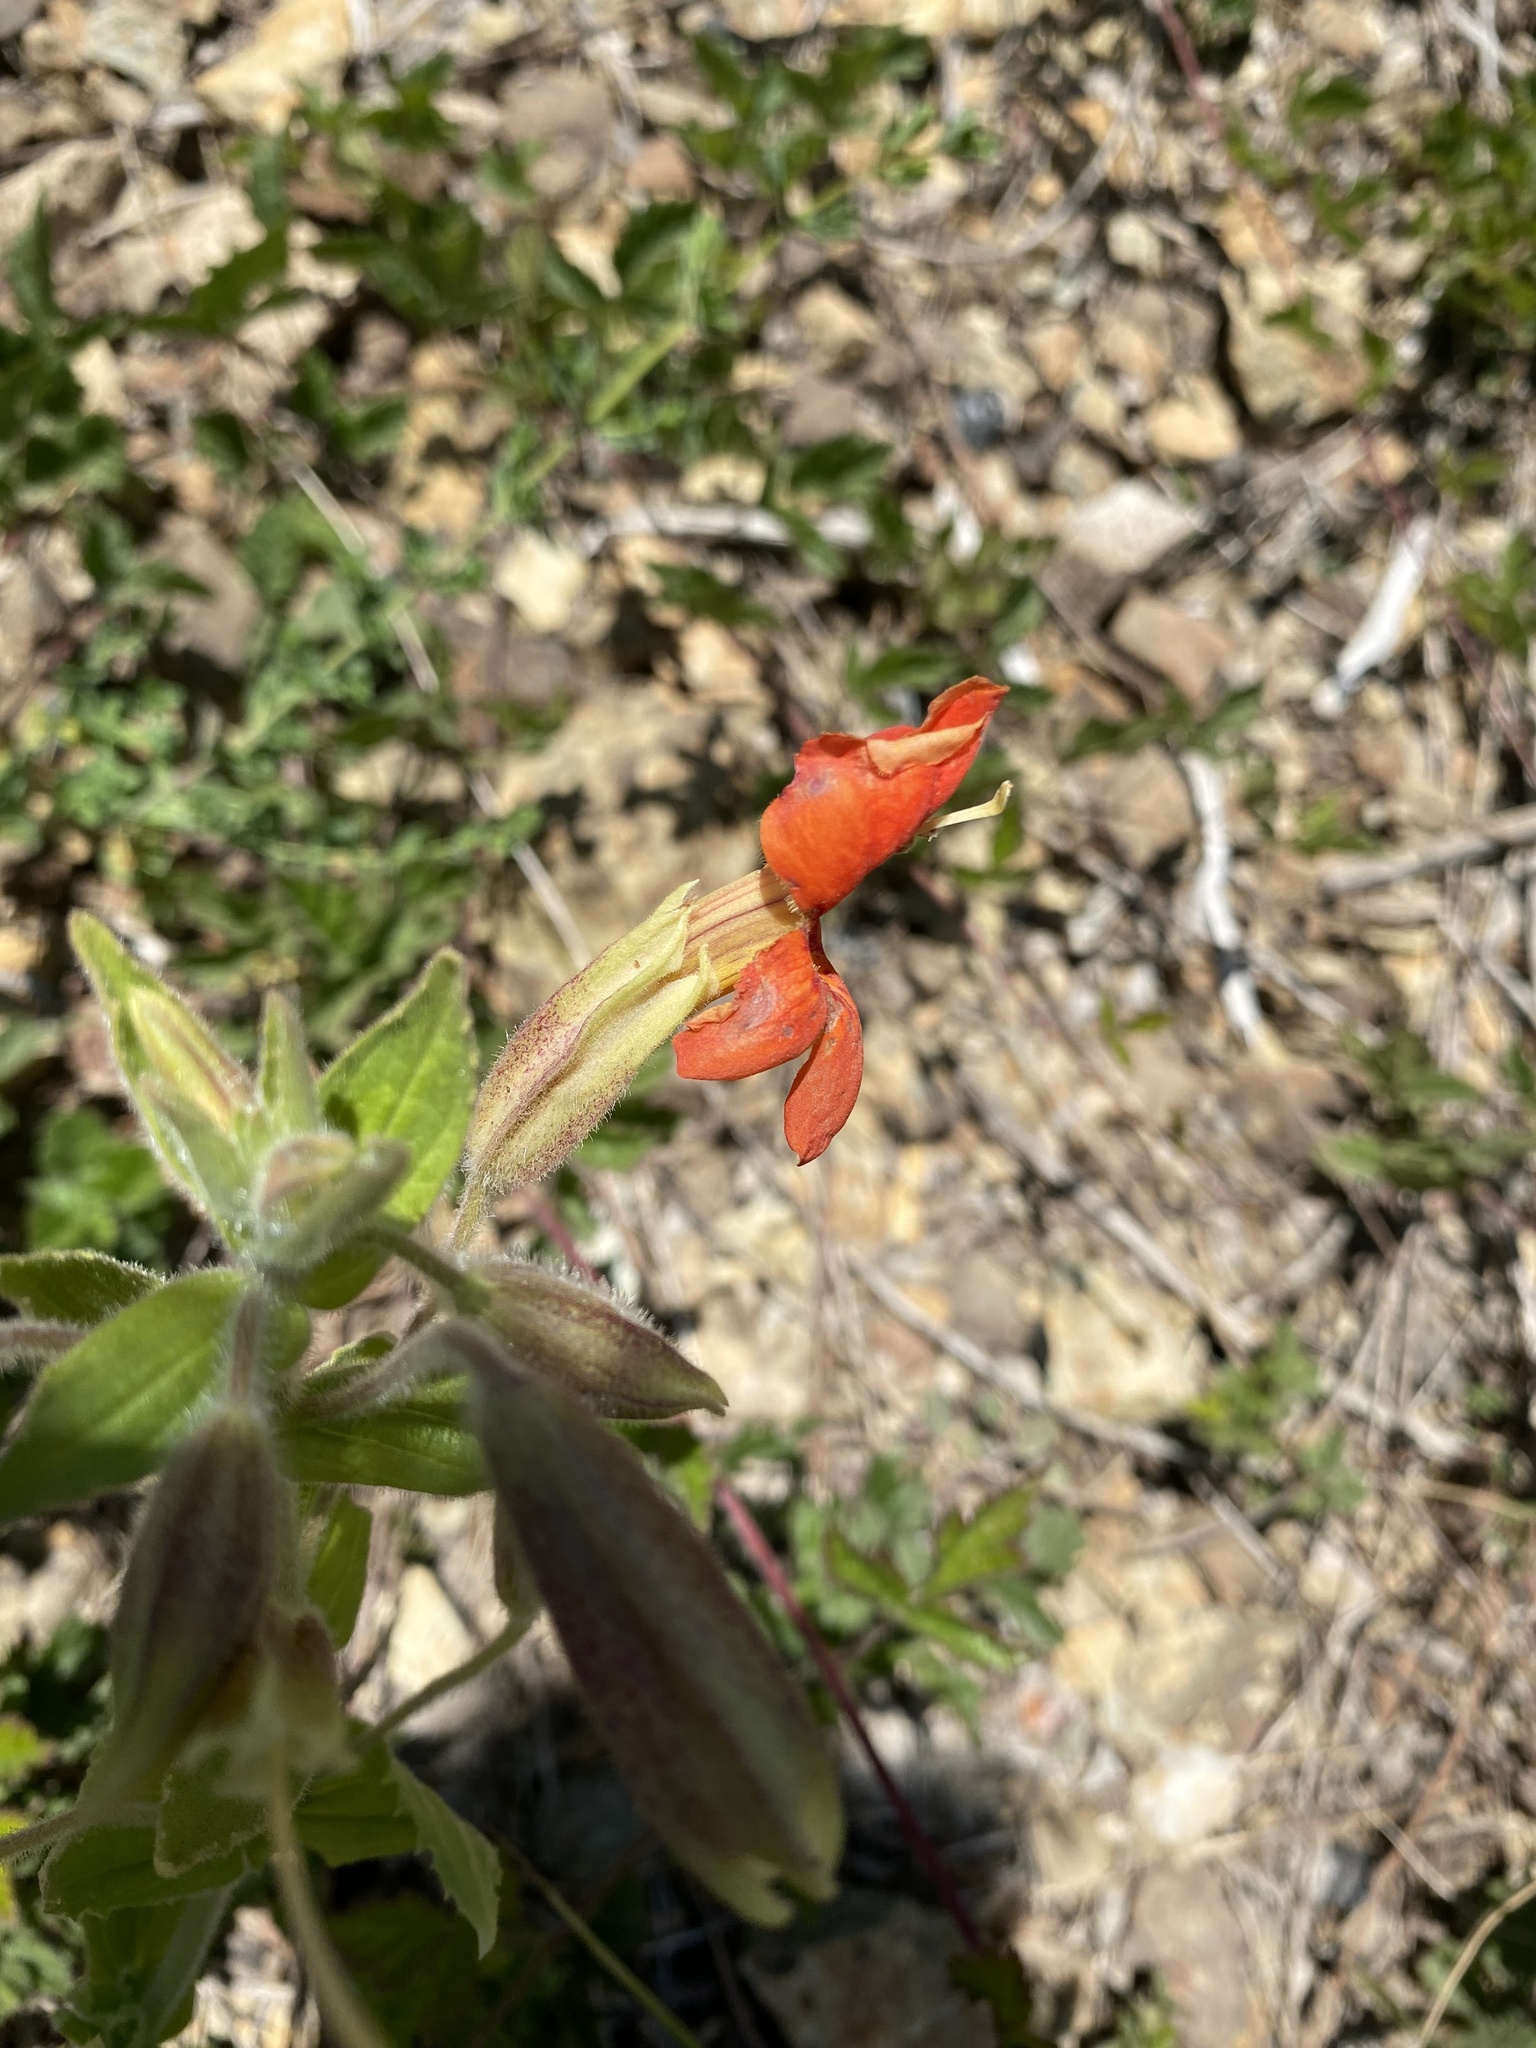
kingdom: Plantae
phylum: Tracheophyta
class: Magnoliopsida
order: Lamiales
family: Phrymaceae
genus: Erythranthe
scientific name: Erythranthe cardinalis
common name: Scarlet monkey-flower
